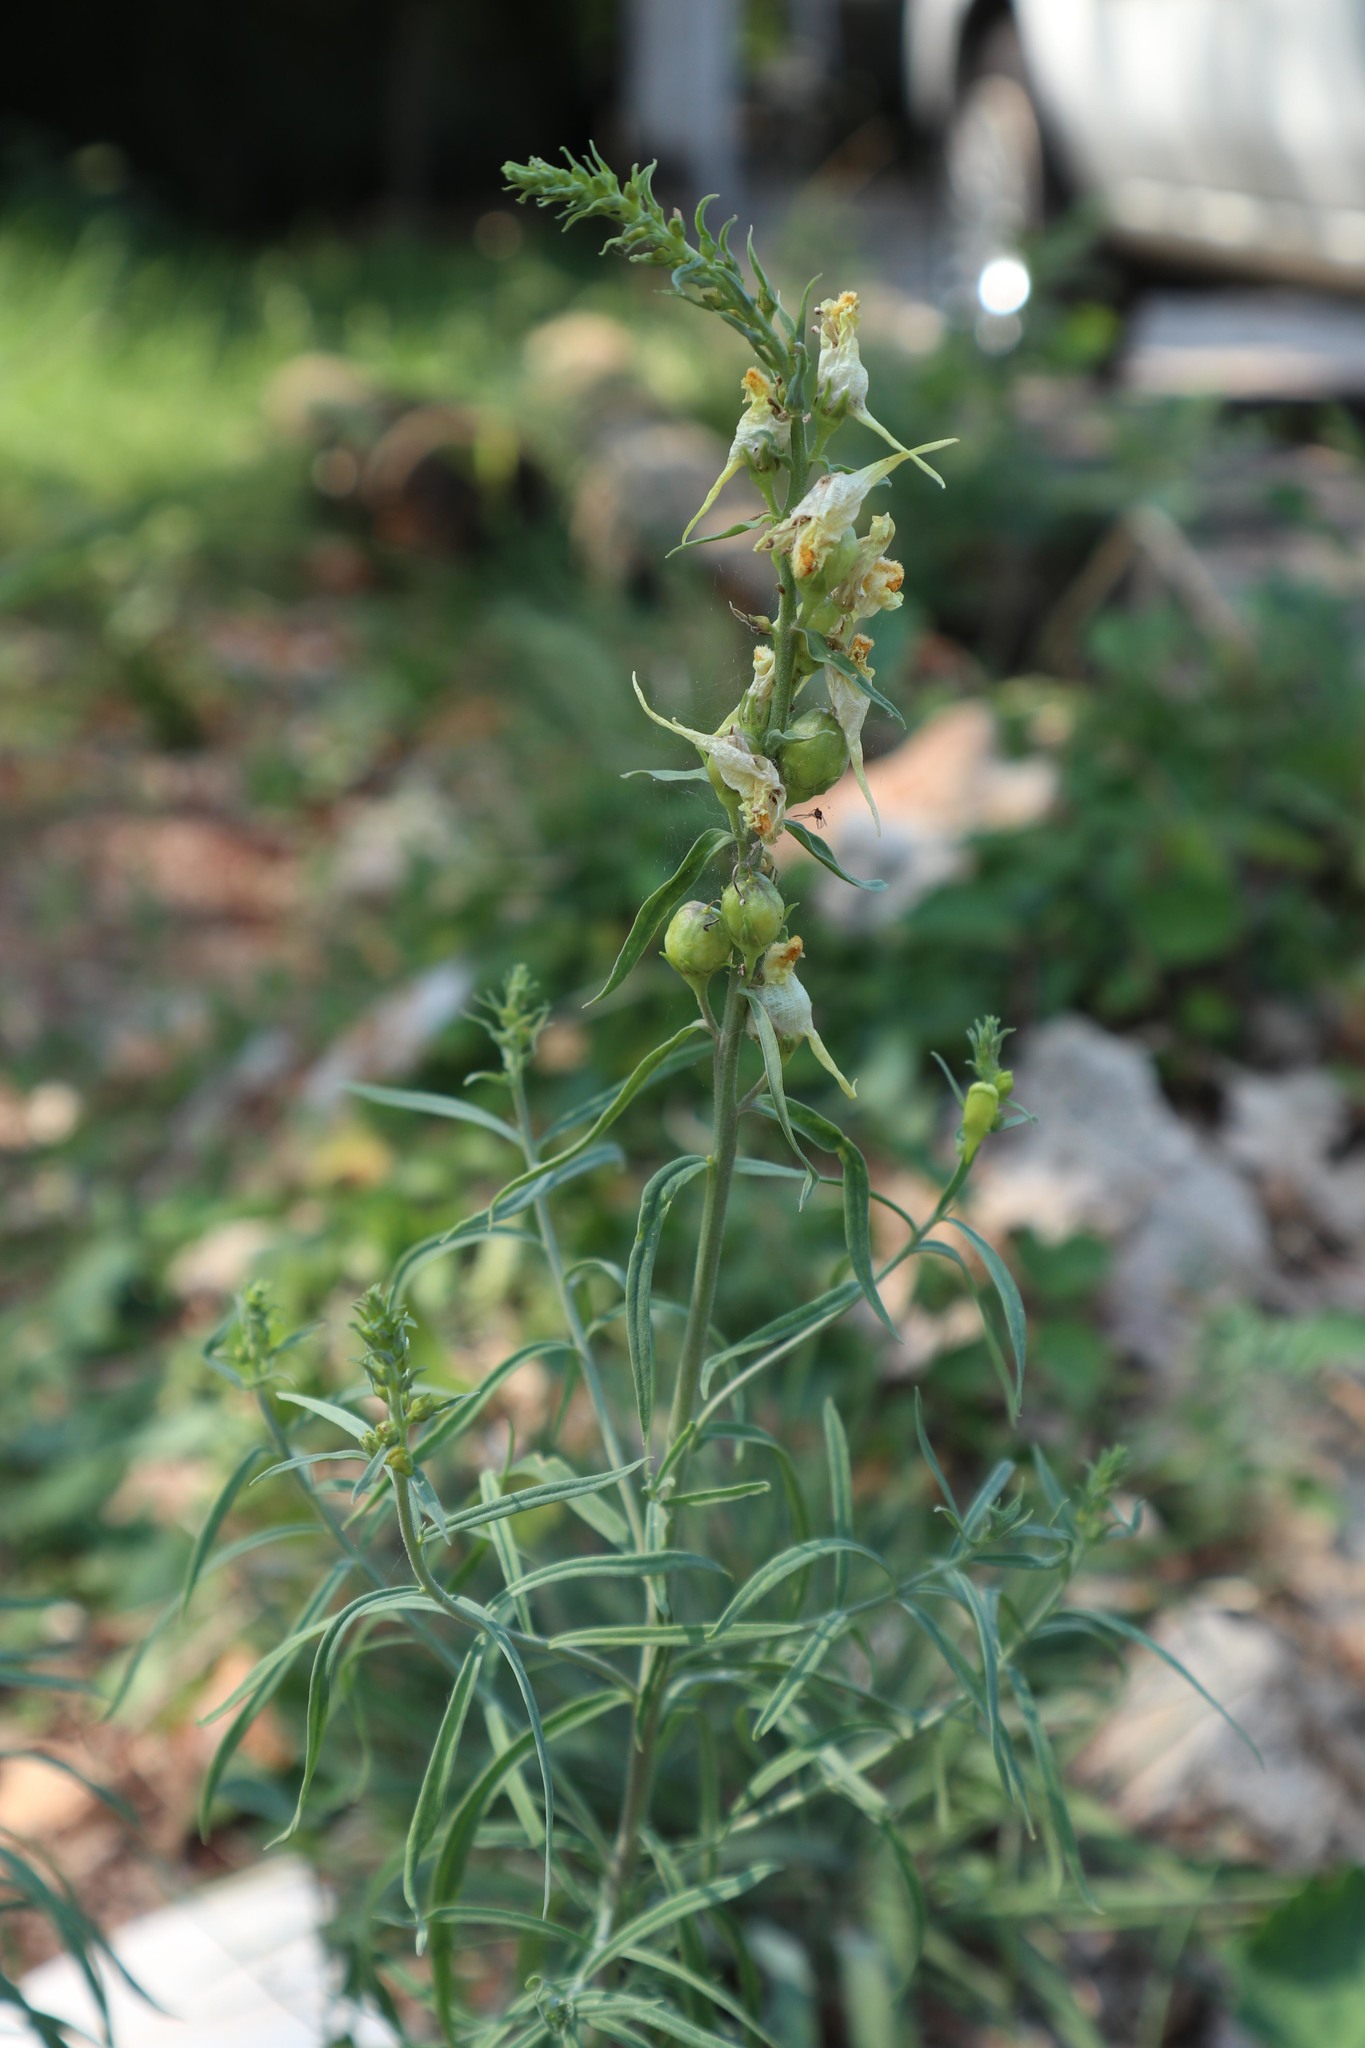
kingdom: Plantae
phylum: Tracheophyta
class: Magnoliopsida
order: Lamiales
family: Plantaginaceae
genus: Linaria
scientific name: Linaria vulgaris
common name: Butter and eggs
